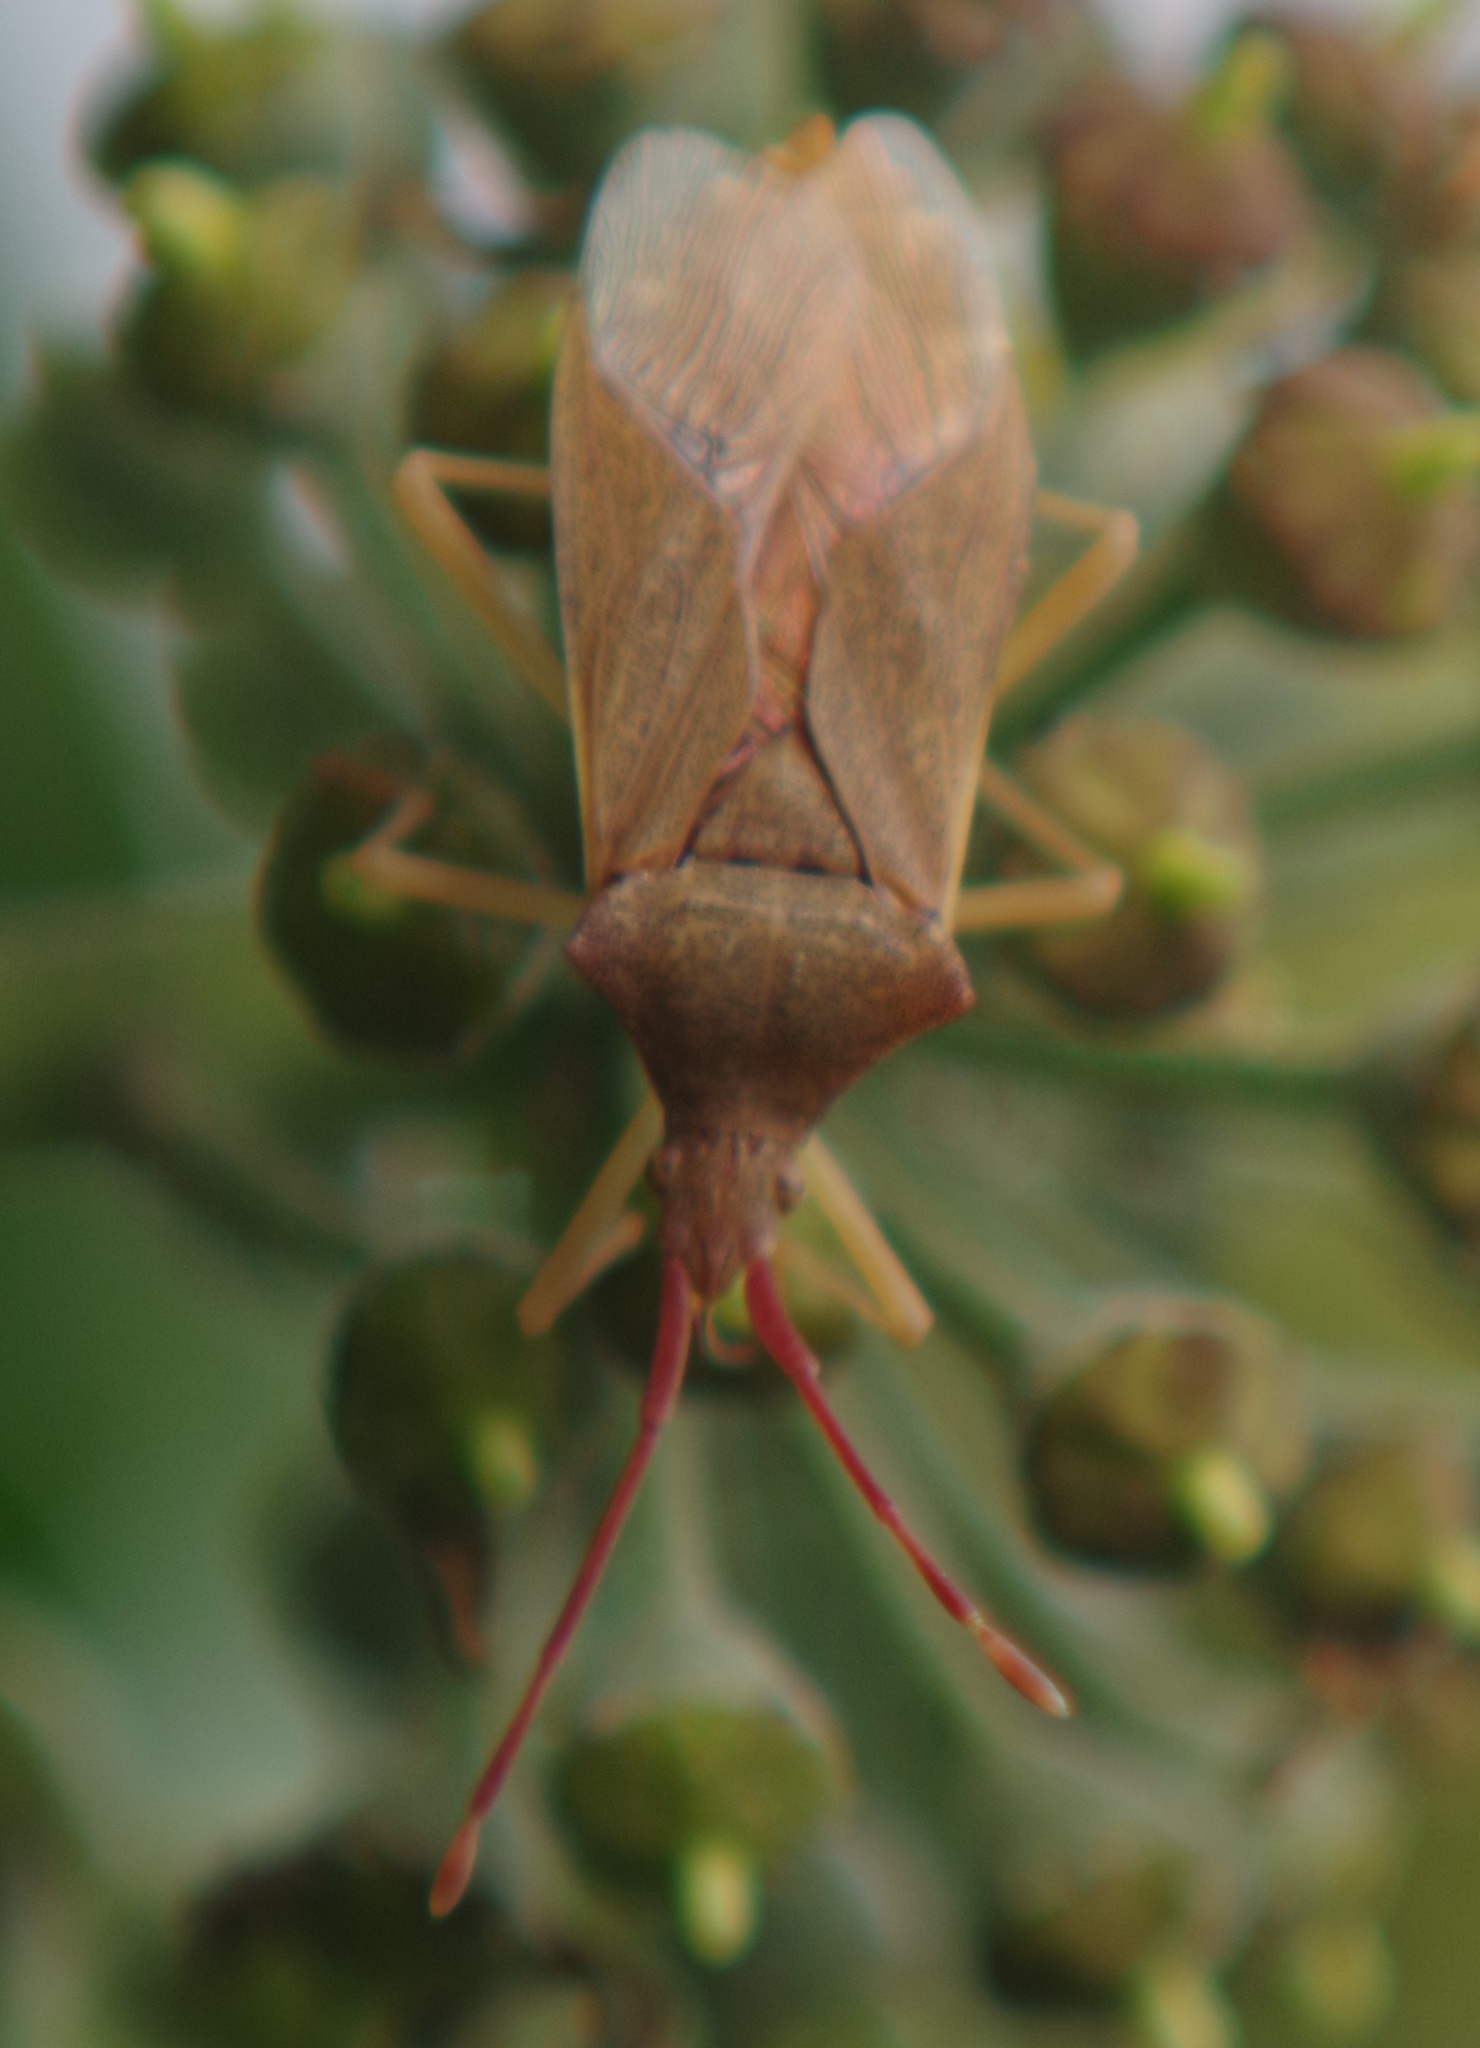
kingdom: Animalia
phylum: Arthropoda
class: Insecta
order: Hemiptera
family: Coreidae
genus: Gonocerus
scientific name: Gonocerus acuteangulatus
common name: Box bug
